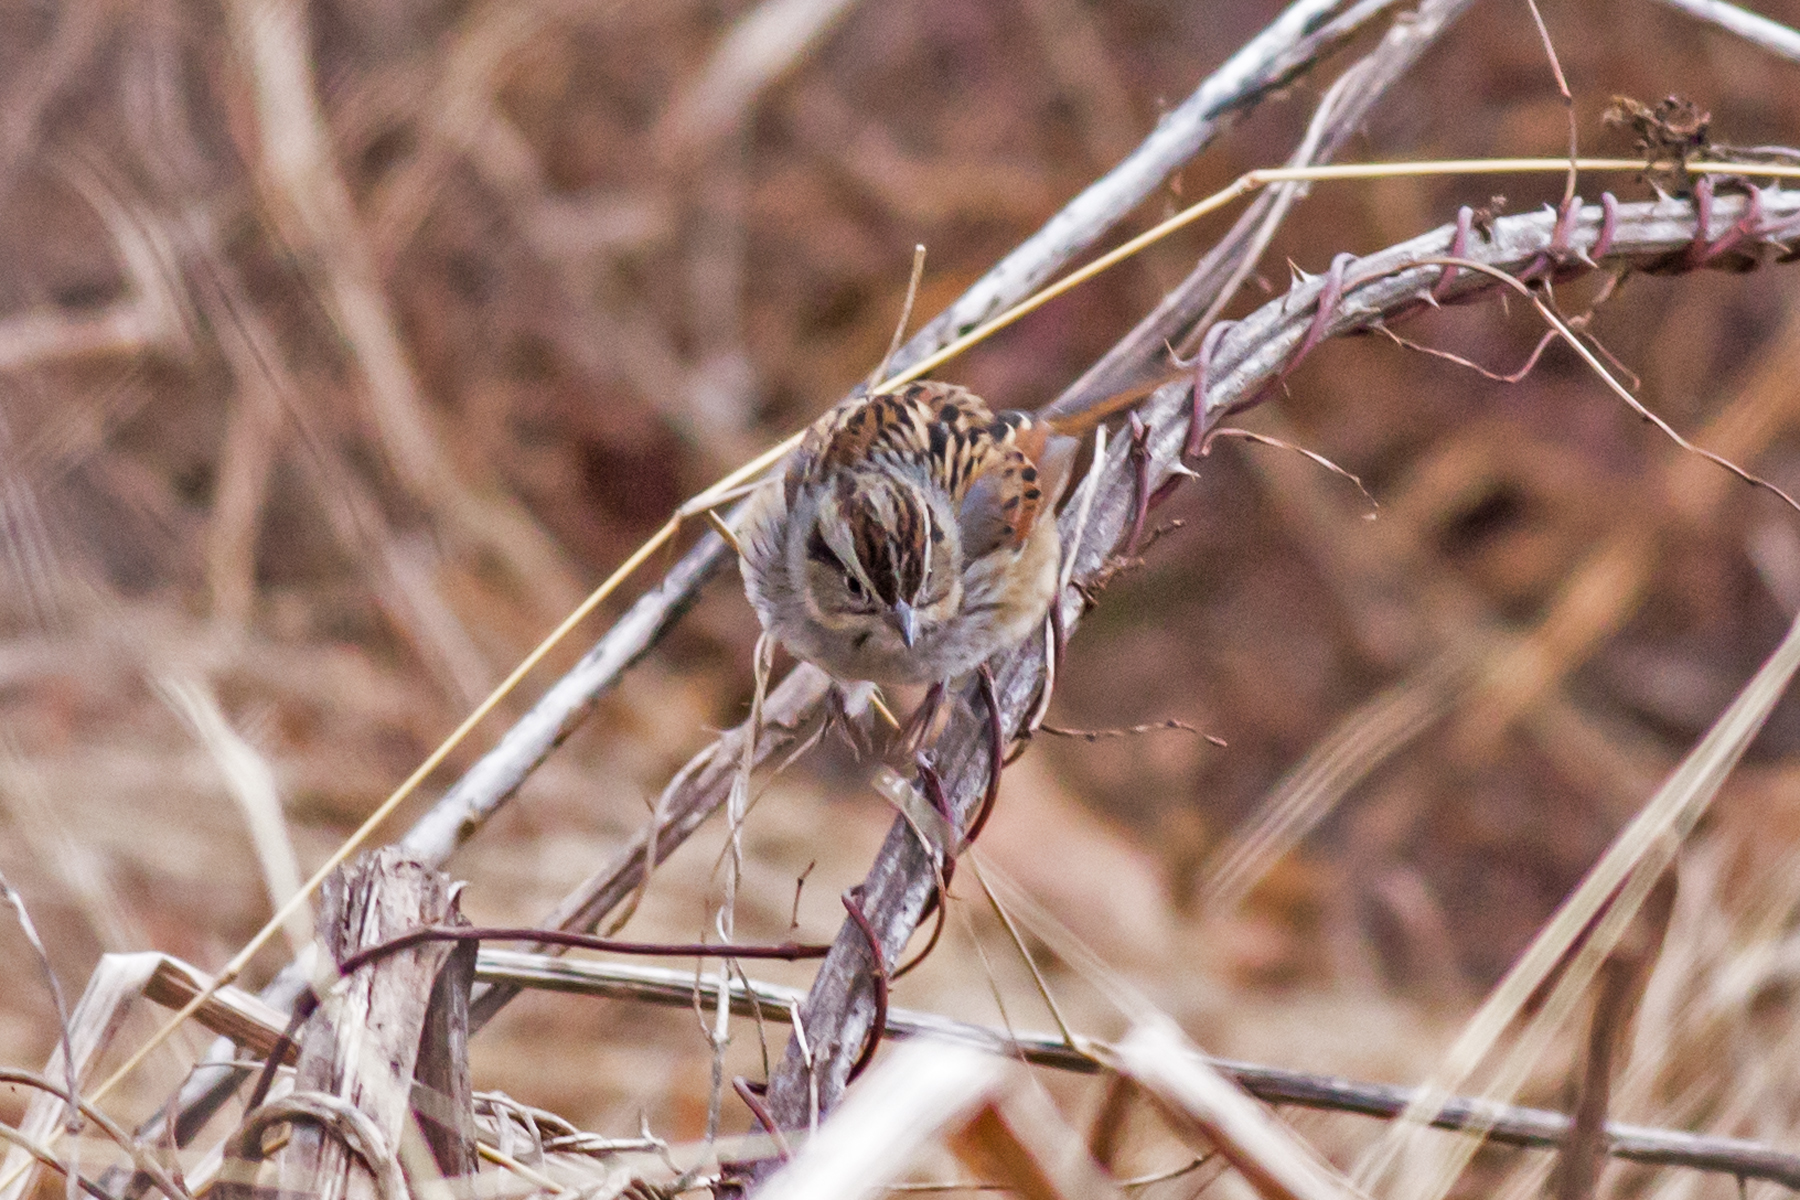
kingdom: Animalia
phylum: Chordata
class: Aves
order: Passeriformes
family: Passerellidae
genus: Melospiza
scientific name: Melospiza georgiana
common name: Swamp sparrow
